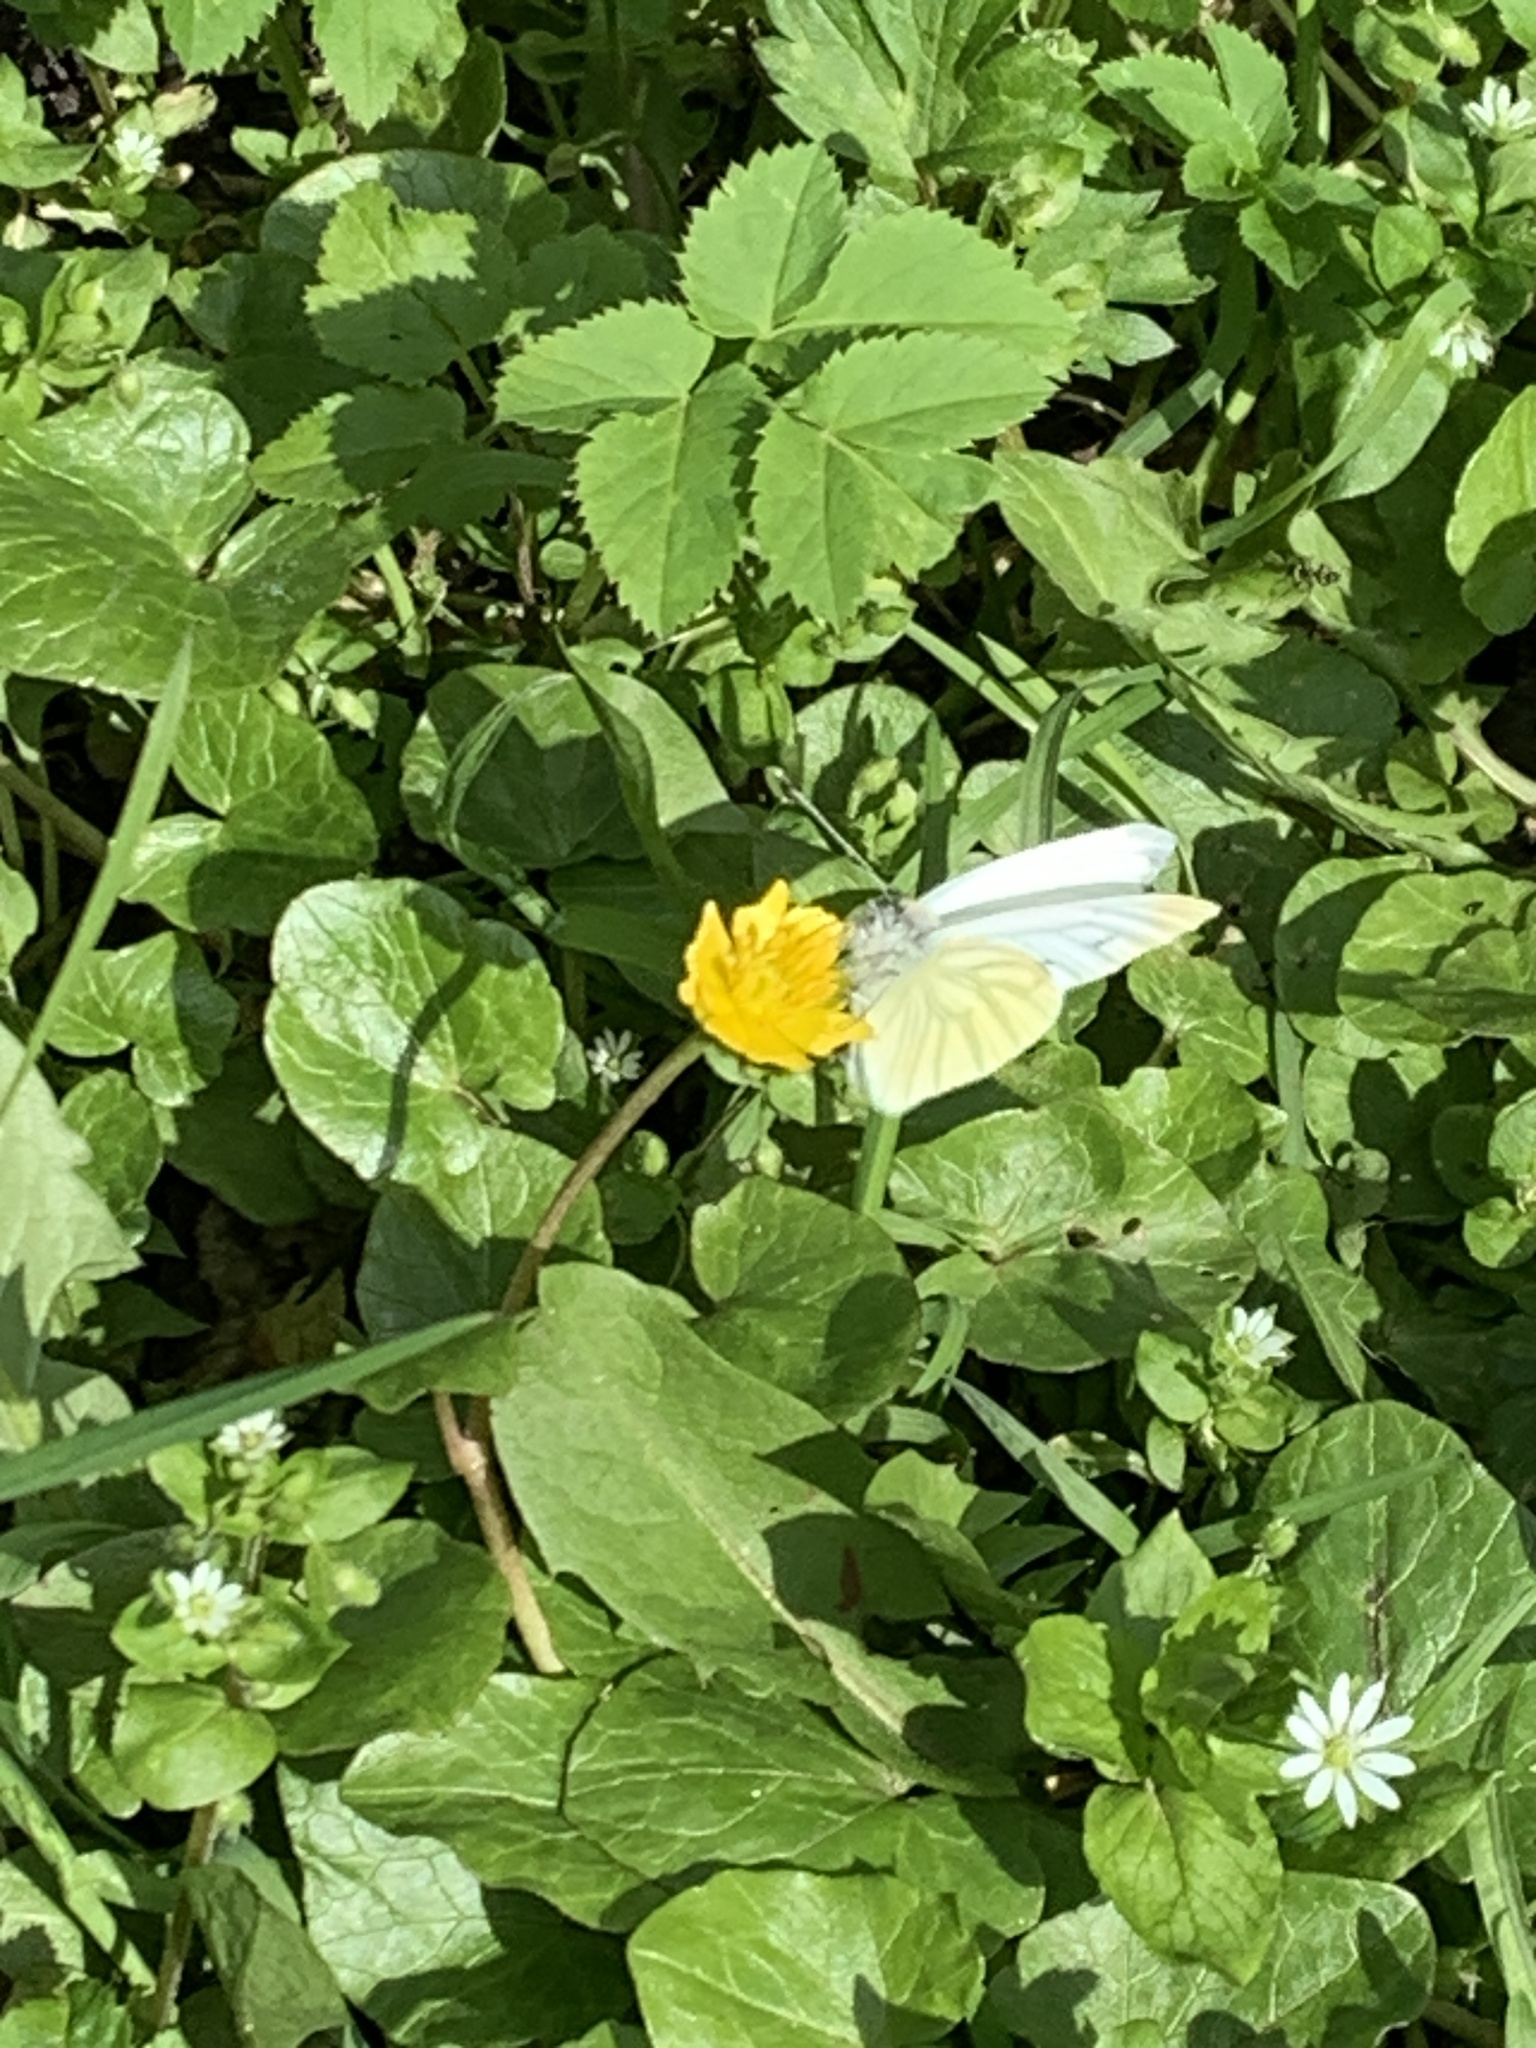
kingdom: Animalia
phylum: Arthropoda
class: Insecta
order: Lepidoptera
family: Pieridae
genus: Pieris
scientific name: Pieris napi
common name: Green-veined white
